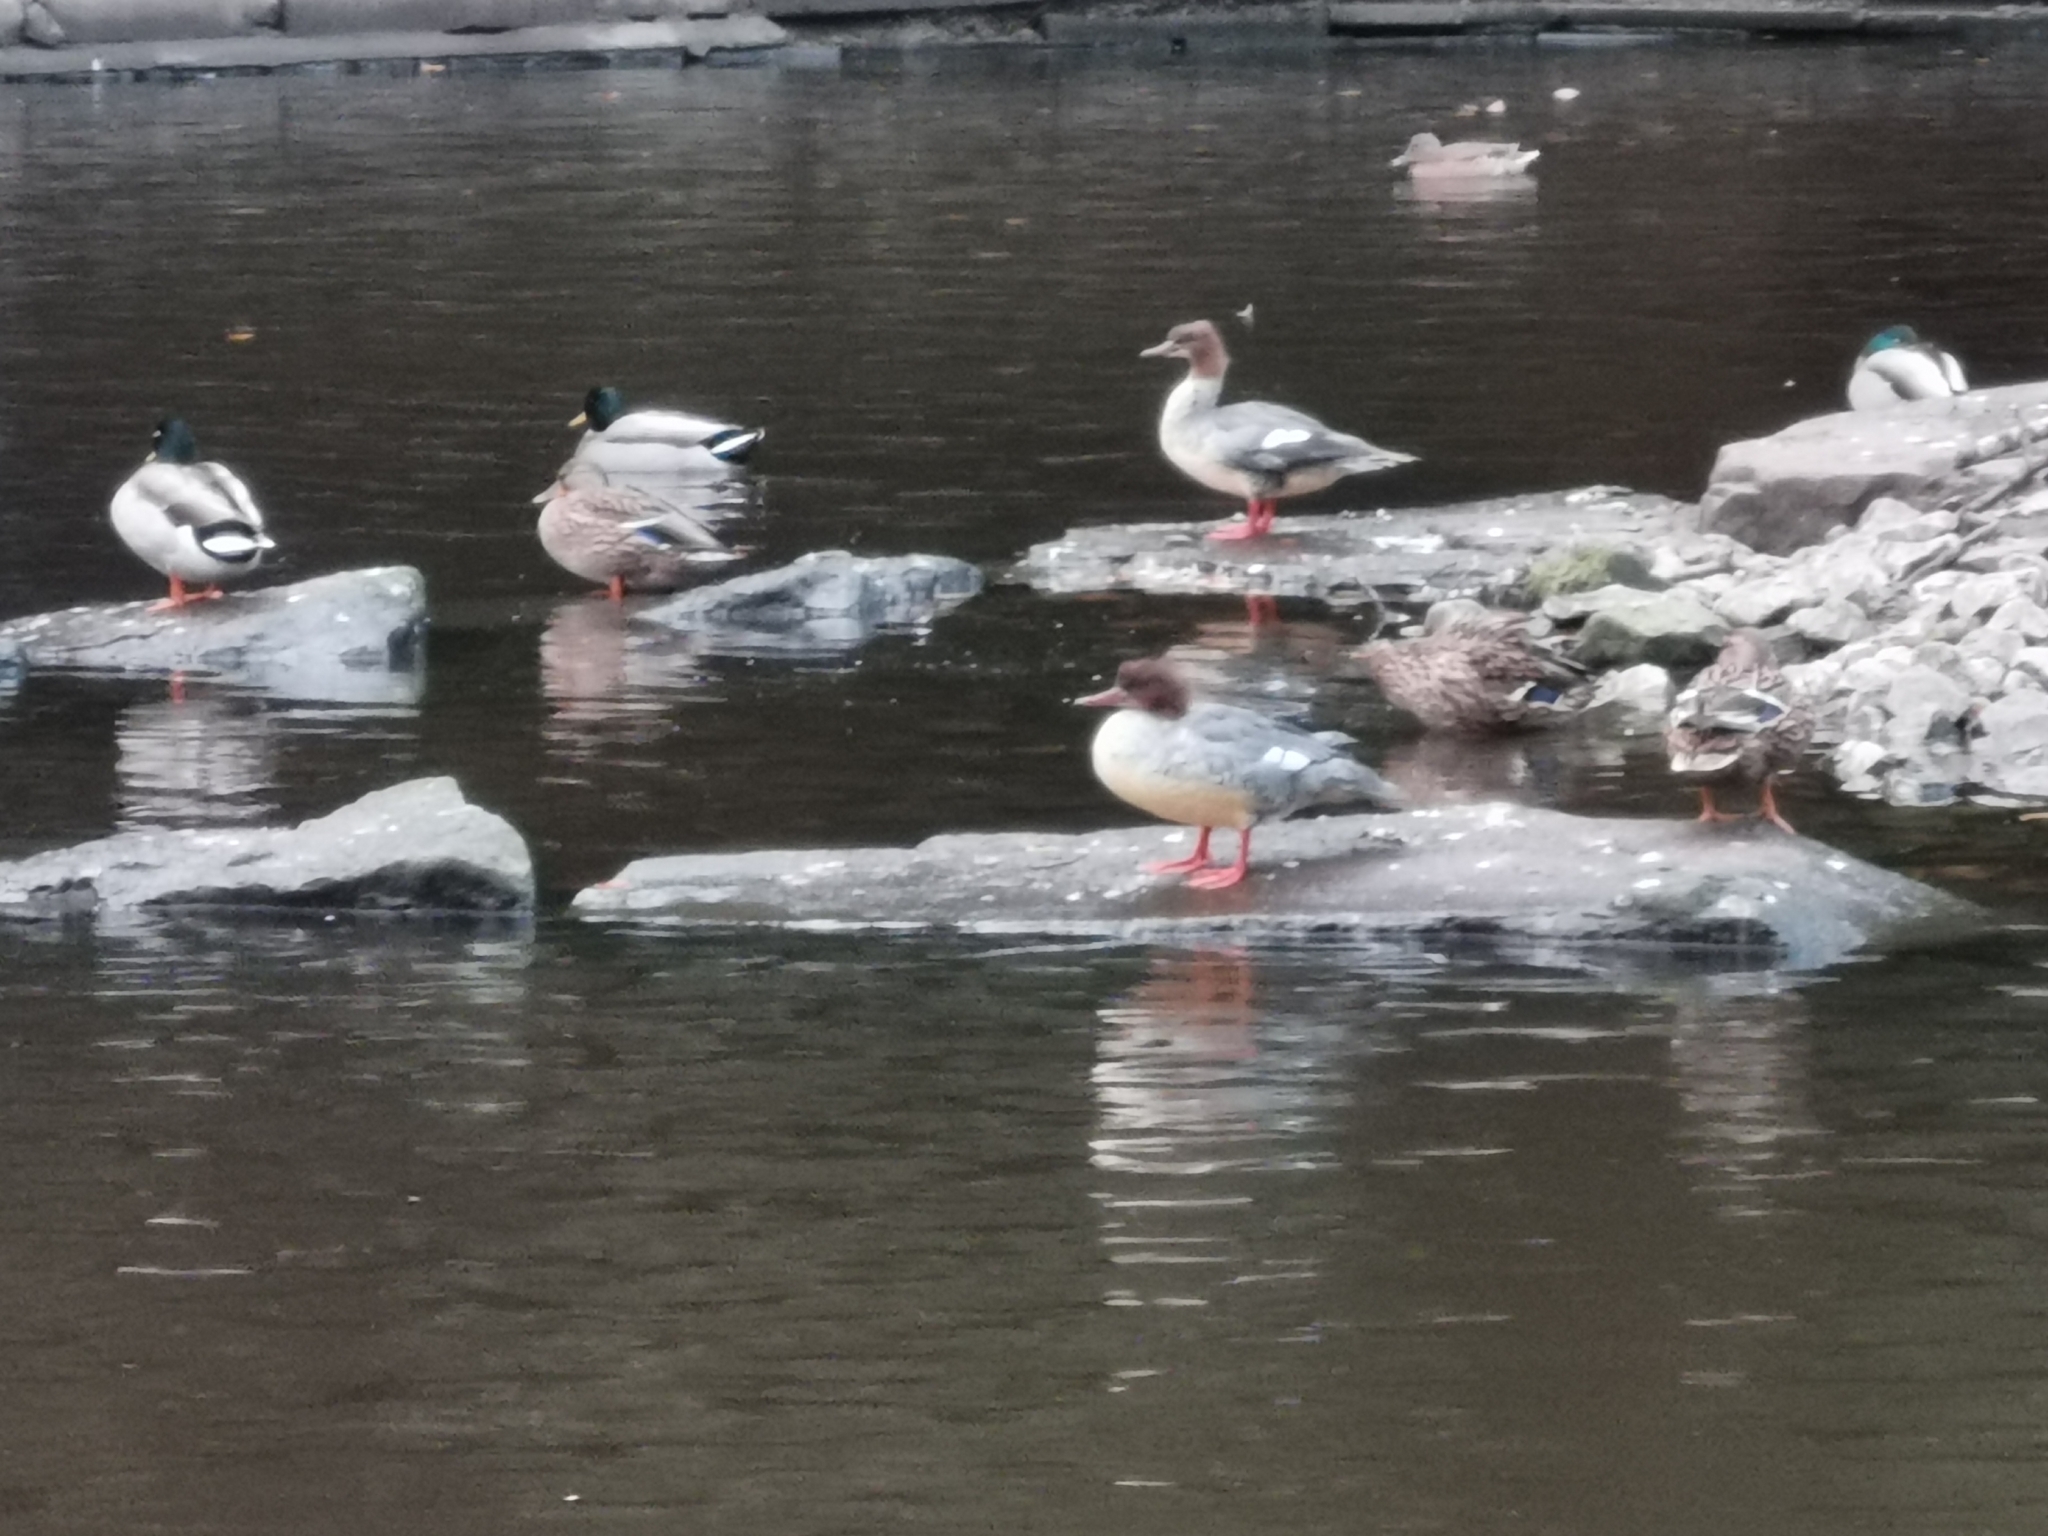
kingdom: Animalia
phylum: Chordata
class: Aves
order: Anseriformes
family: Anatidae
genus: Mergus
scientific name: Mergus merganser
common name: Common merganser
